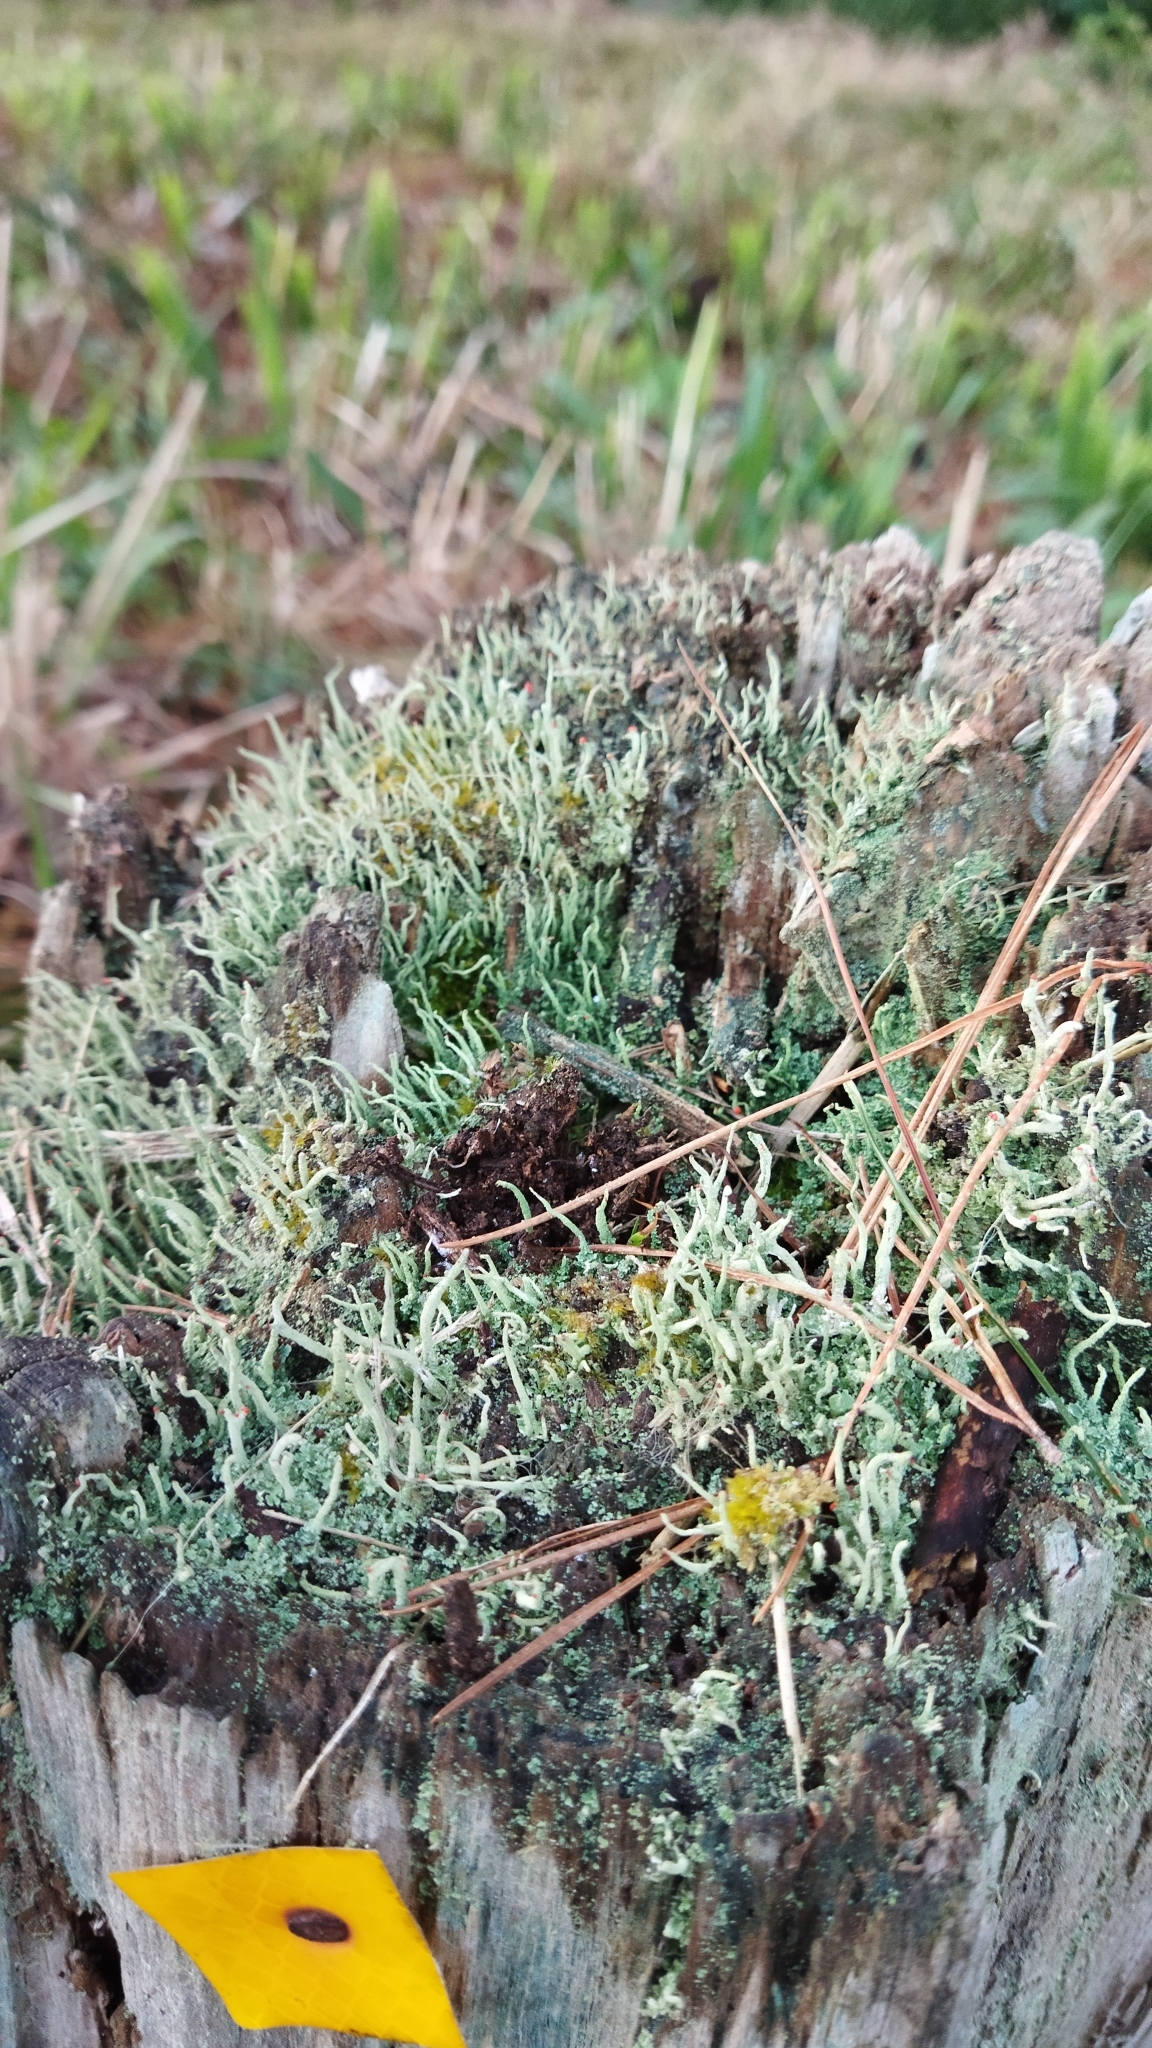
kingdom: Fungi
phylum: Ascomycota
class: Lecanoromycetes
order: Lecanorales
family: Cladoniaceae
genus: Cladonia
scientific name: Cladonia macilenta
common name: Lipstick powderhorn
